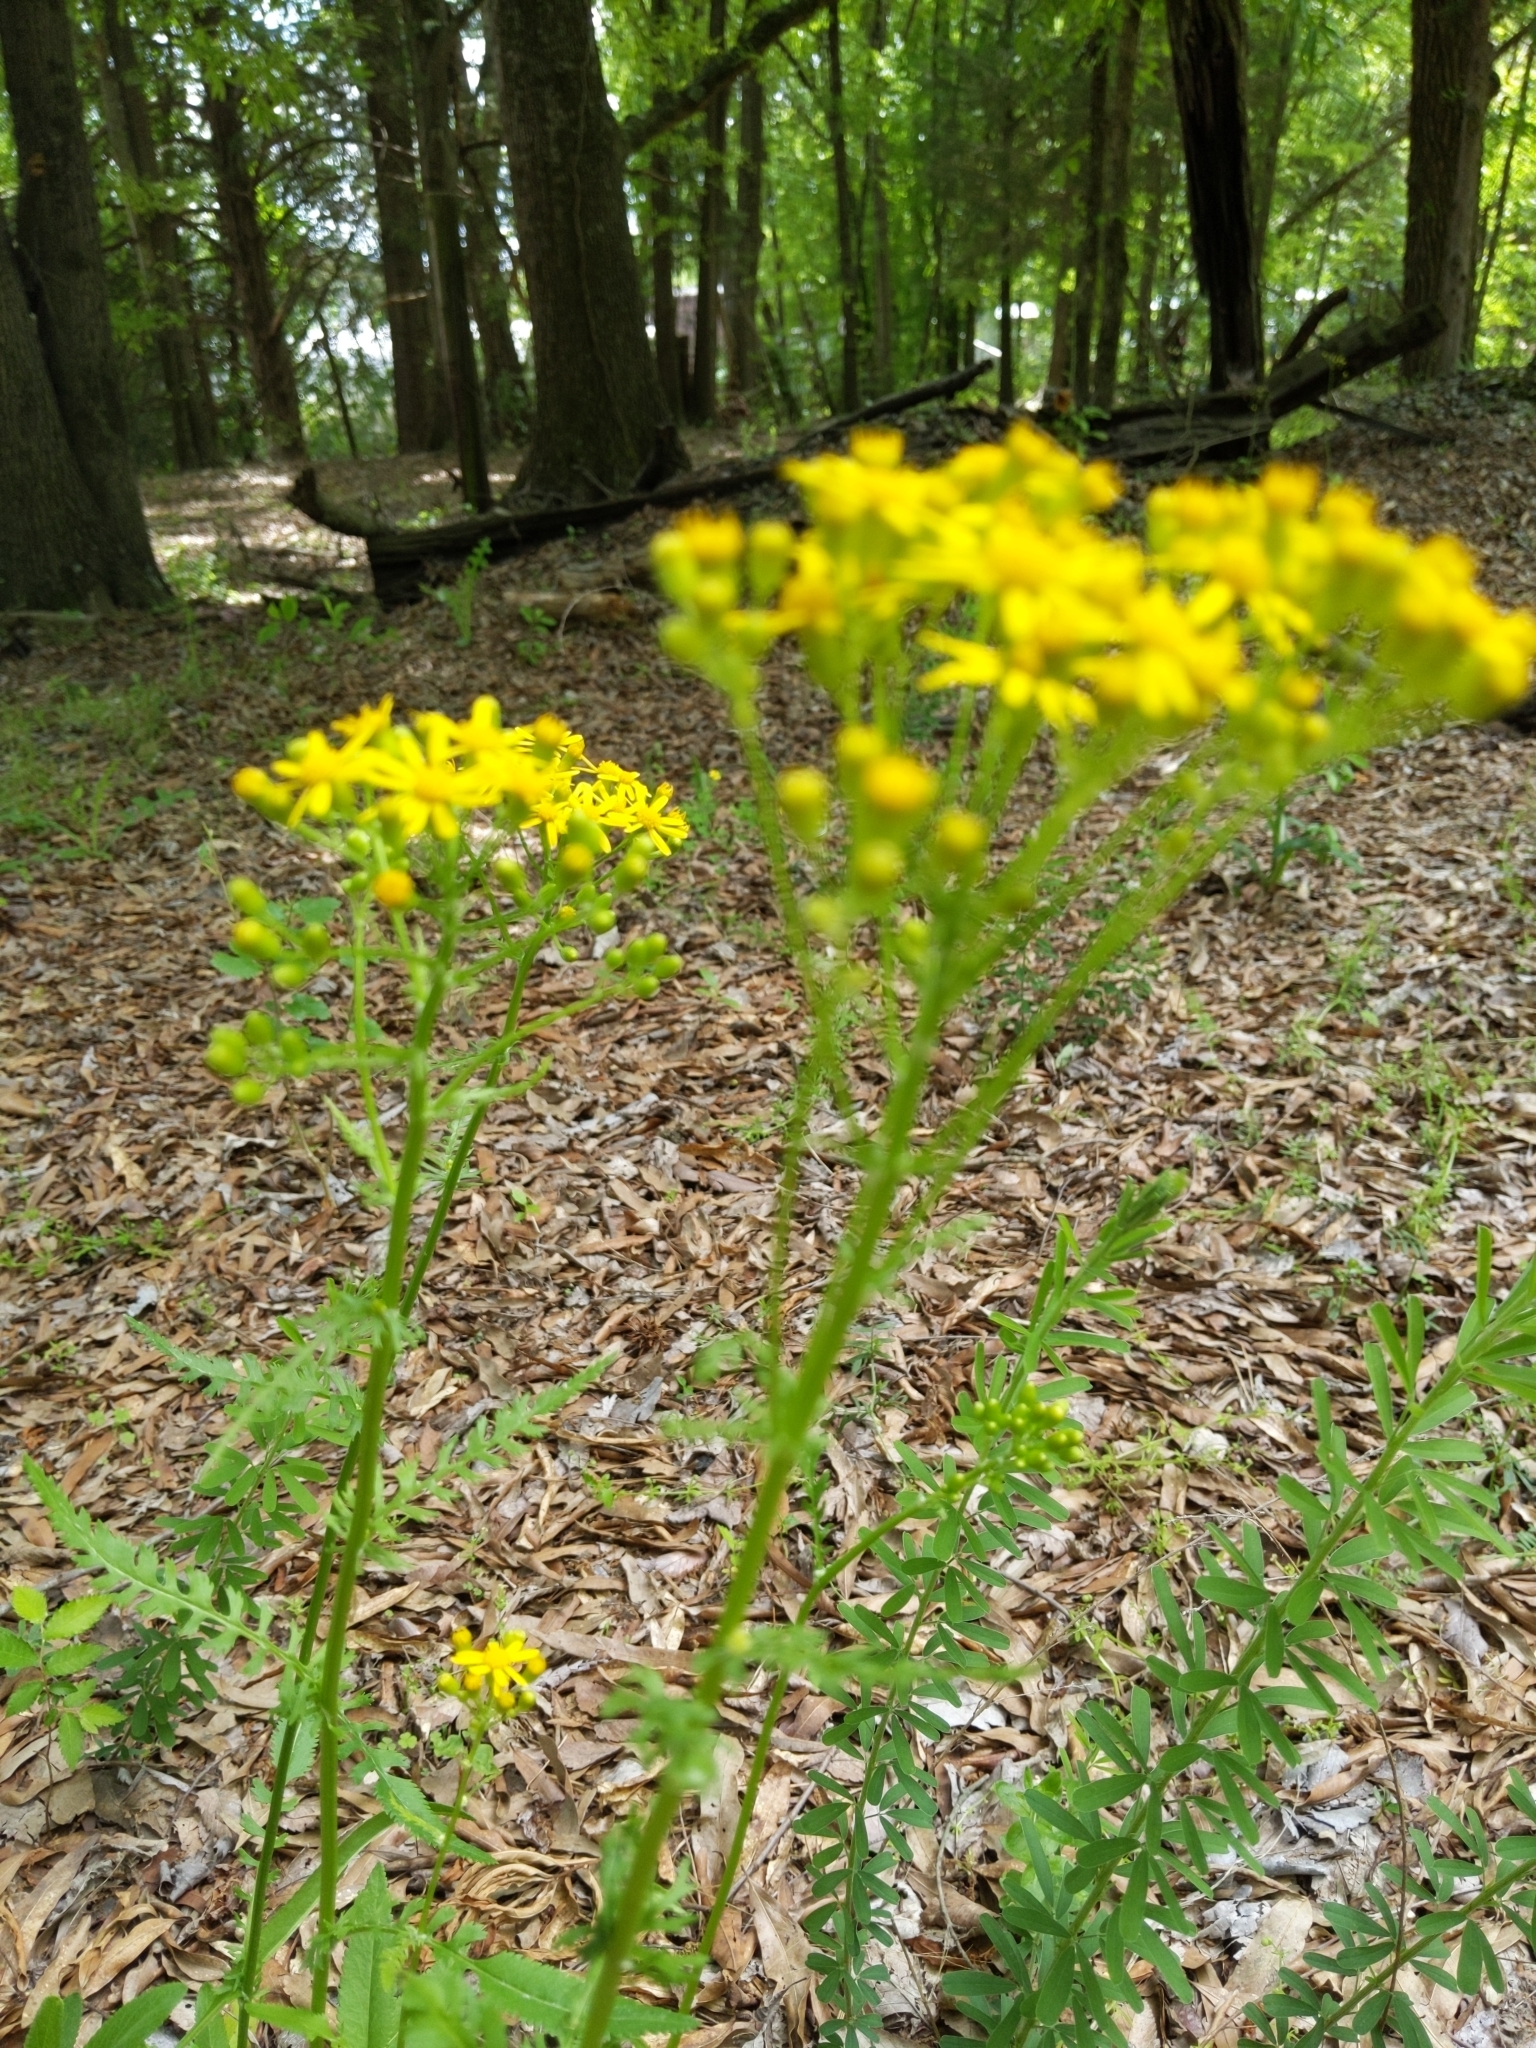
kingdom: Plantae
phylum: Tracheophyta
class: Magnoliopsida
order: Asterales
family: Asteraceae
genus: Packera
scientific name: Packera anonyma
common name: Small ragwort
